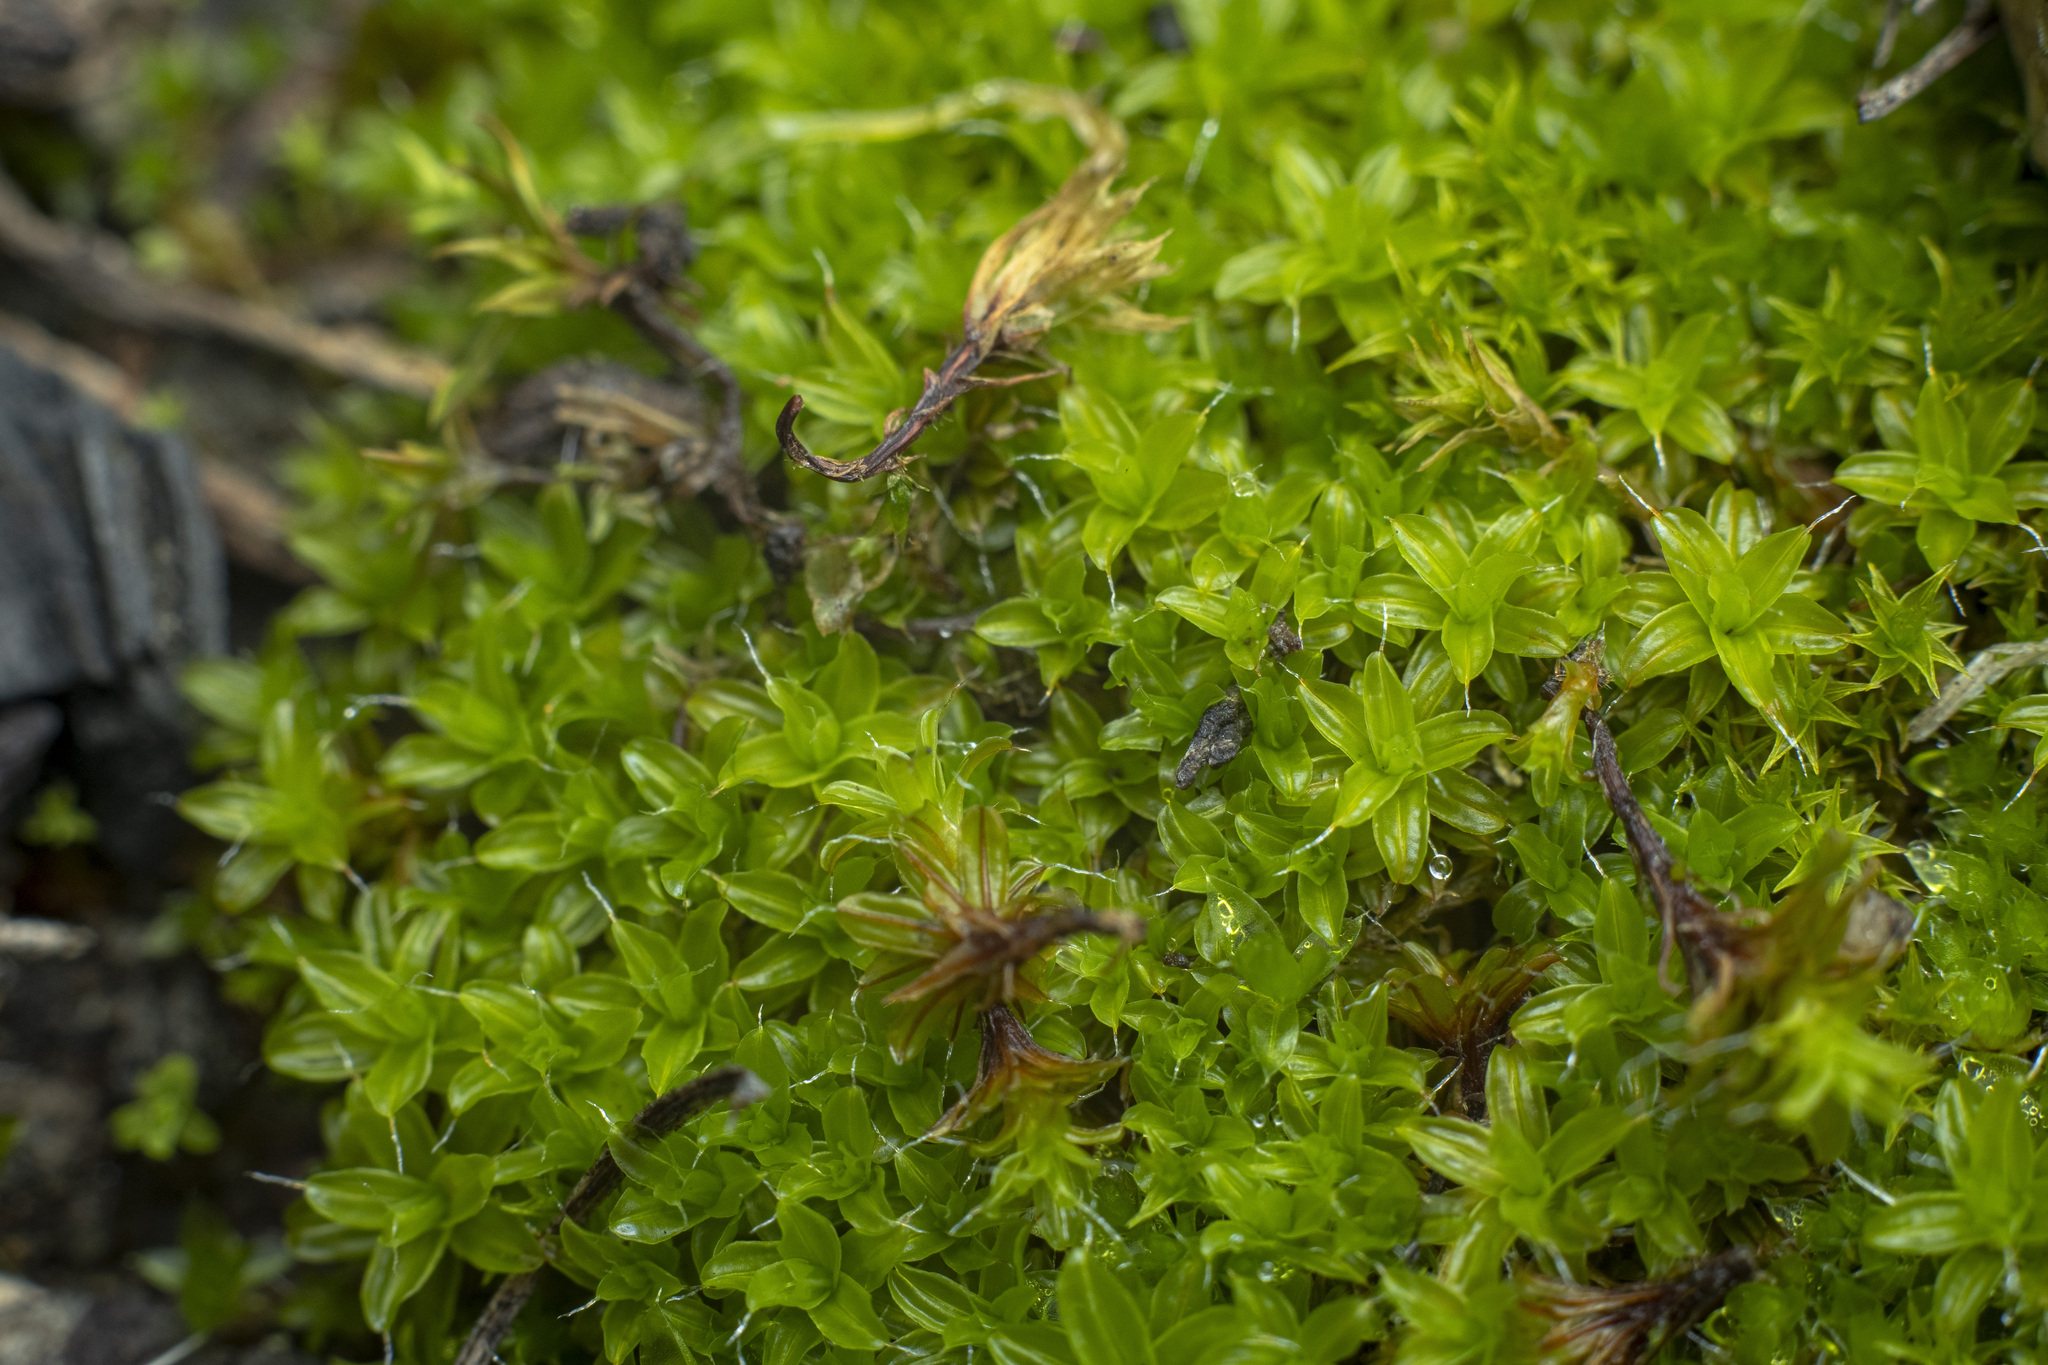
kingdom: Plantae
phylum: Bryophyta
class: Bryopsida
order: Pottiales
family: Pottiaceae
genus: Syntrichia
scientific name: Syntrichia
